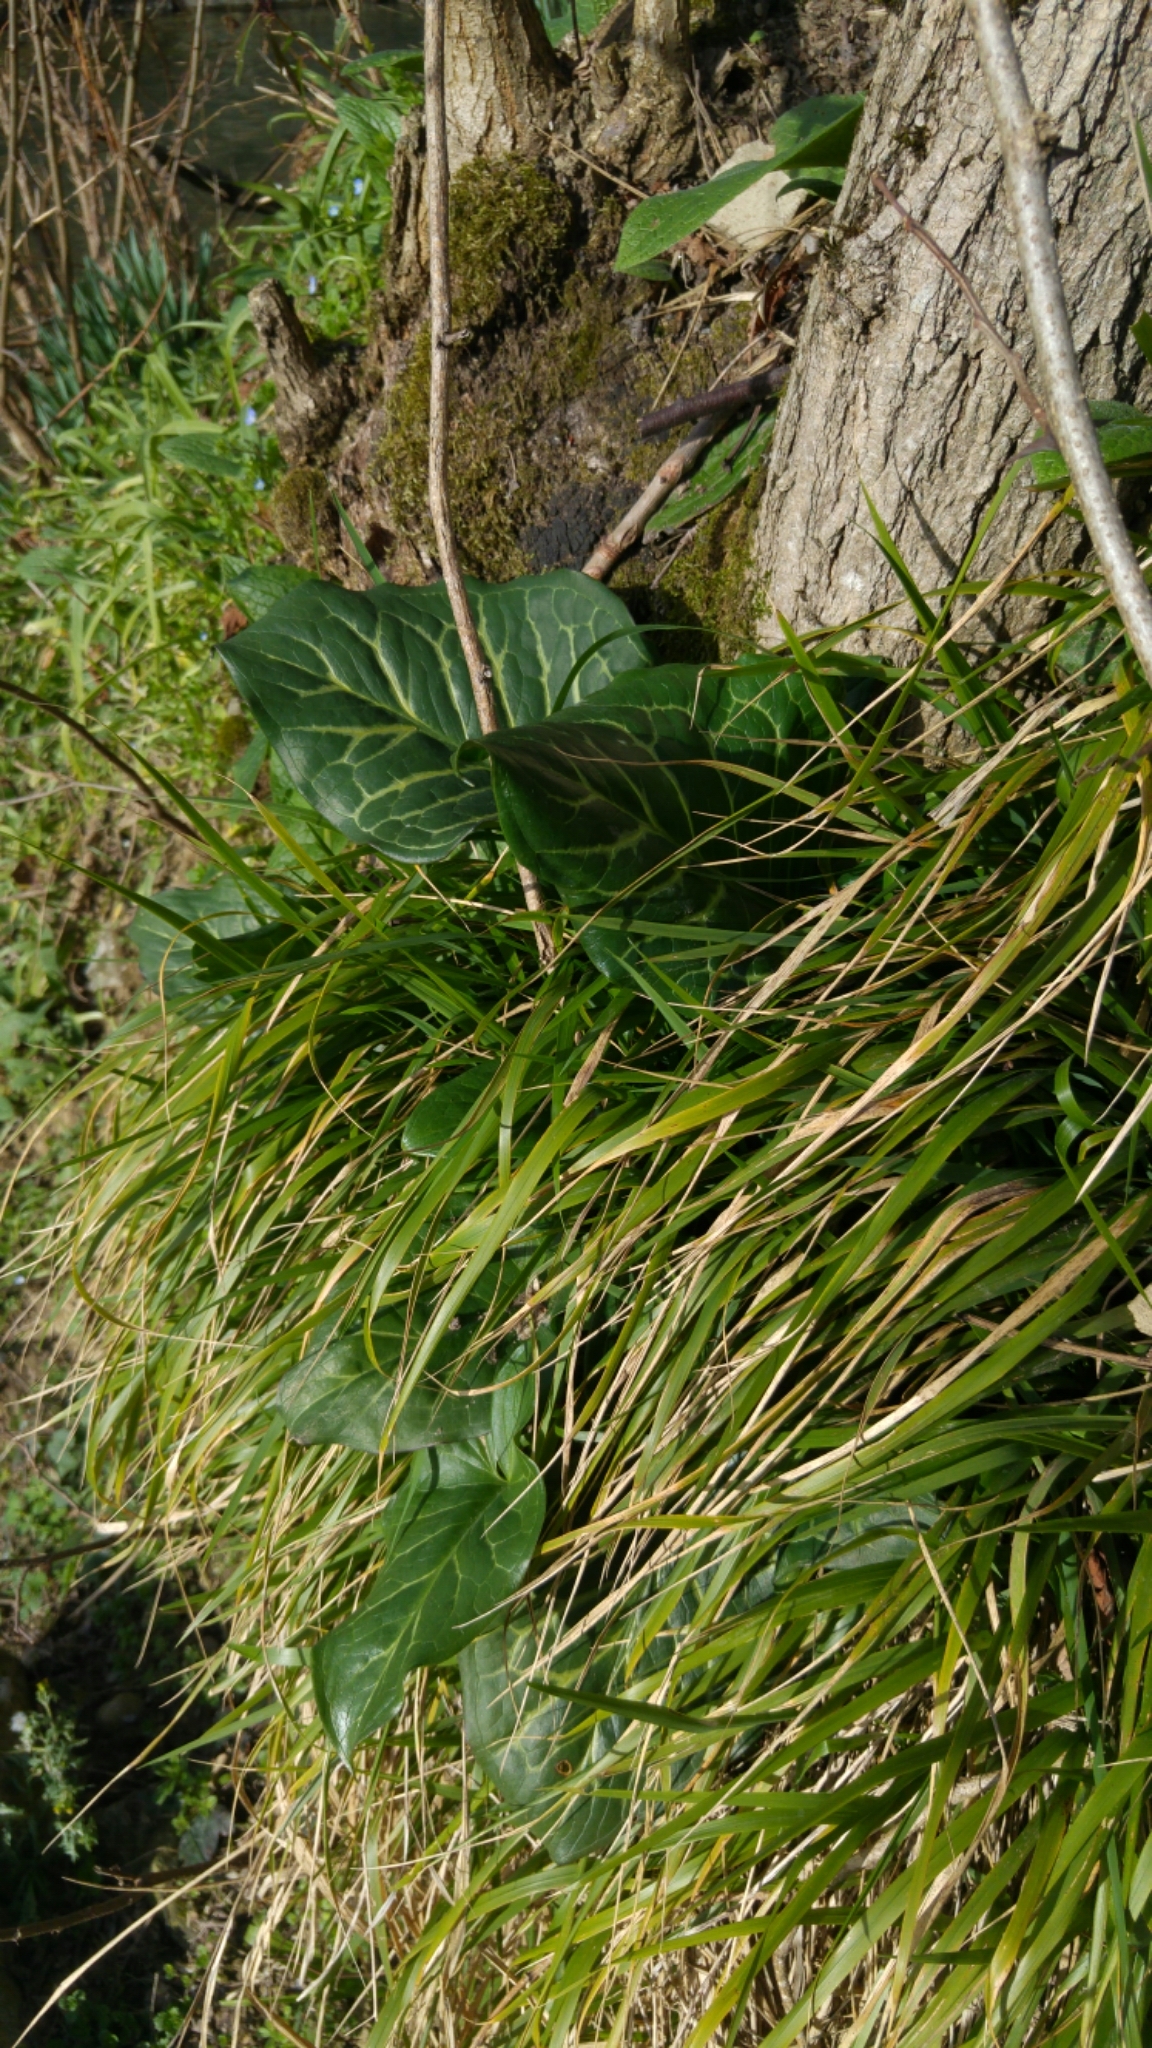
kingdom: Plantae
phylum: Tracheophyta
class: Liliopsida
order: Alismatales
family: Araceae
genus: Arum
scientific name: Arum italicum
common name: Italian lords-and-ladies
